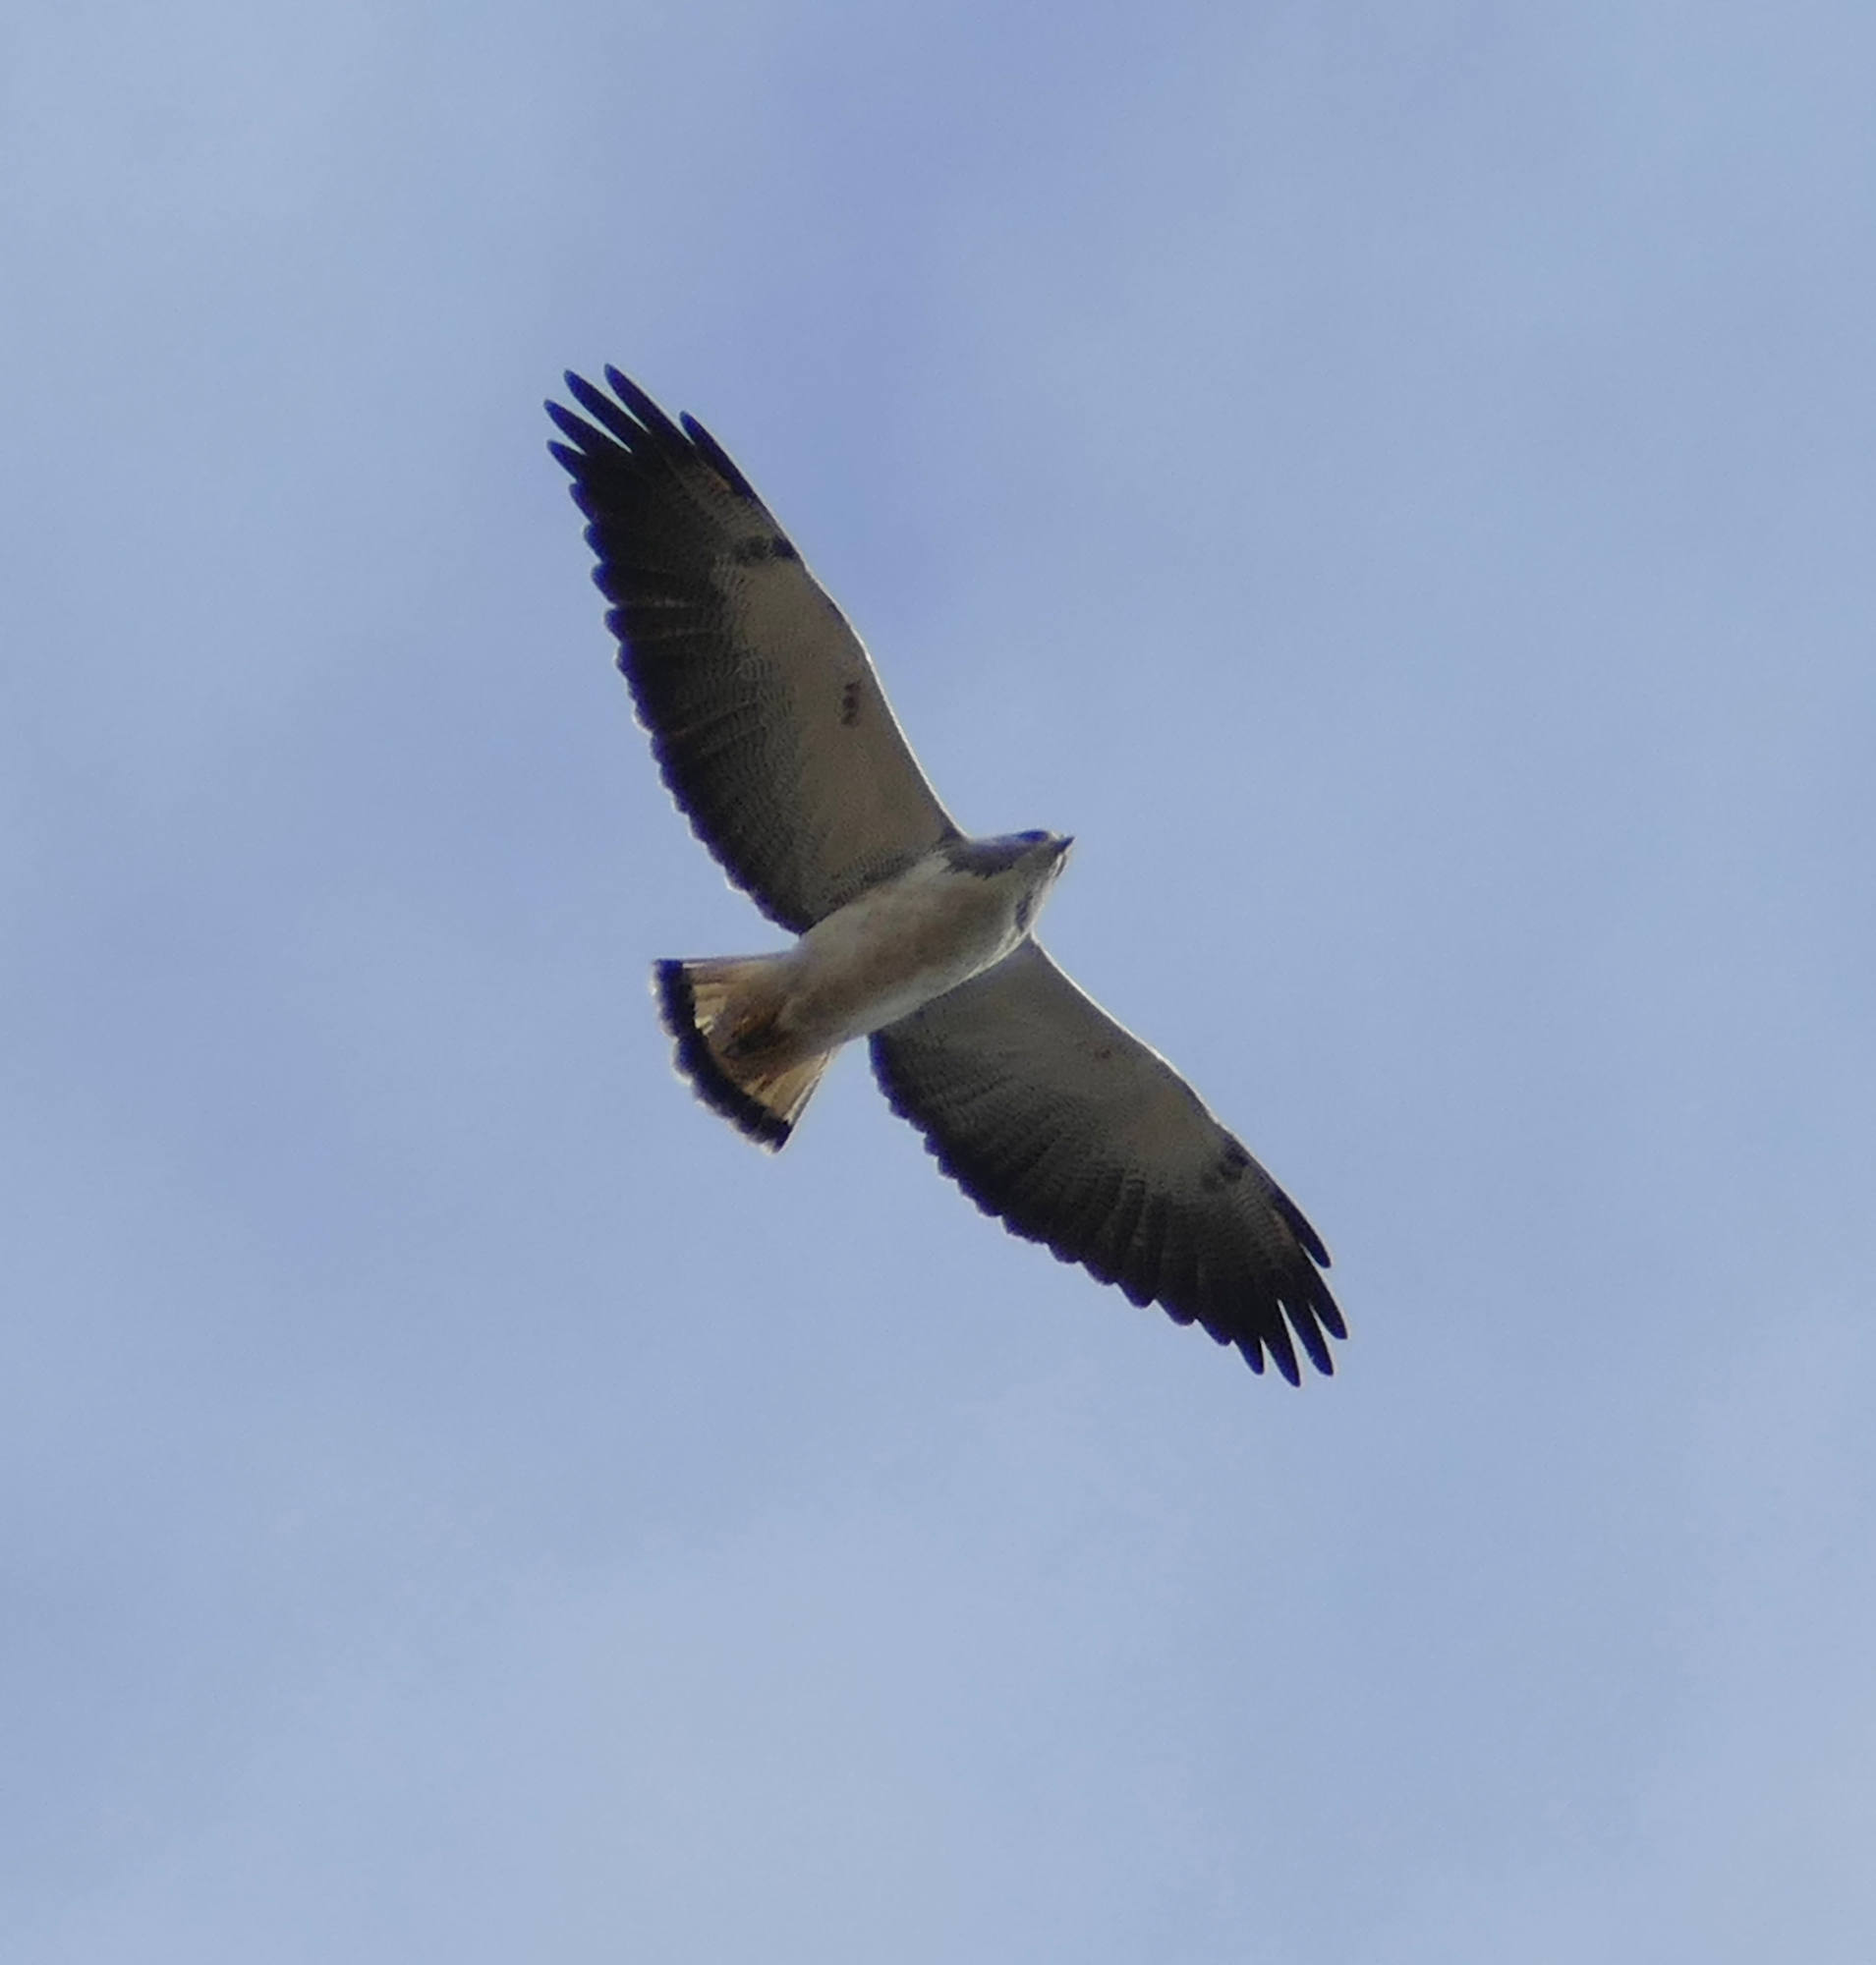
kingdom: Animalia
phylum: Chordata
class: Aves
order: Accipitriformes
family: Accipitridae
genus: Buteo
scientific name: Buteo albicaudatus
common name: White-tailed hawk
